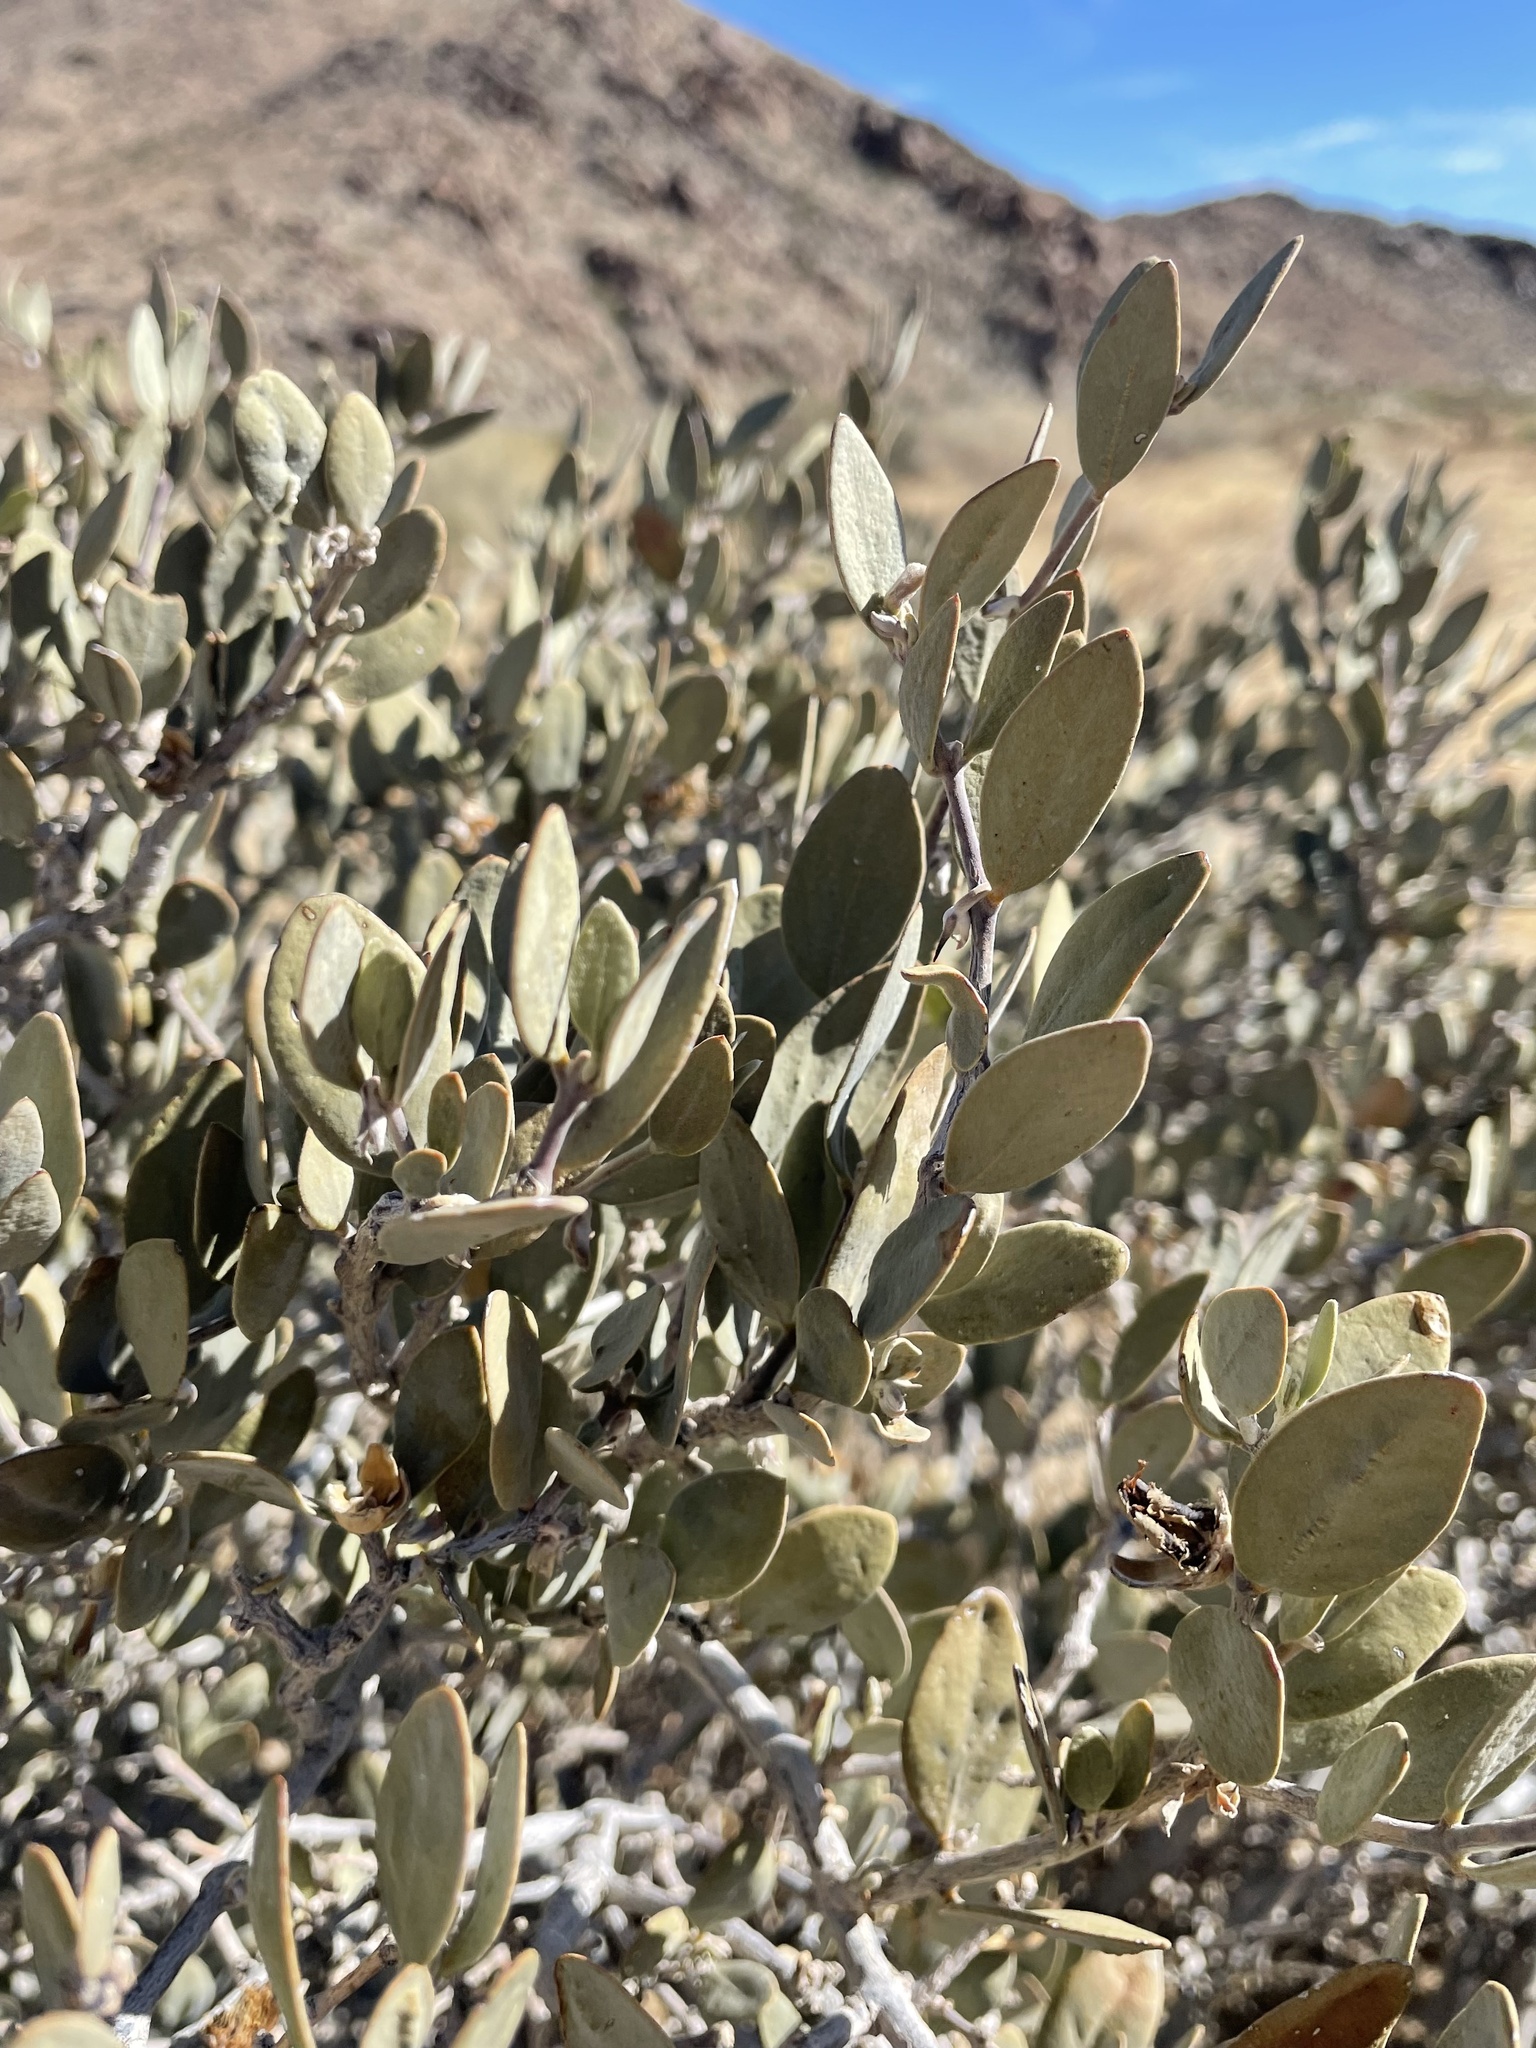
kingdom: Plantae
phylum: Tracheophyta
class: Magnoliopsida
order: Caryophyllales
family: Simmondsiaceae
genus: Simmondsia
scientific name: Simmondsia chinensis
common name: Jojoba
